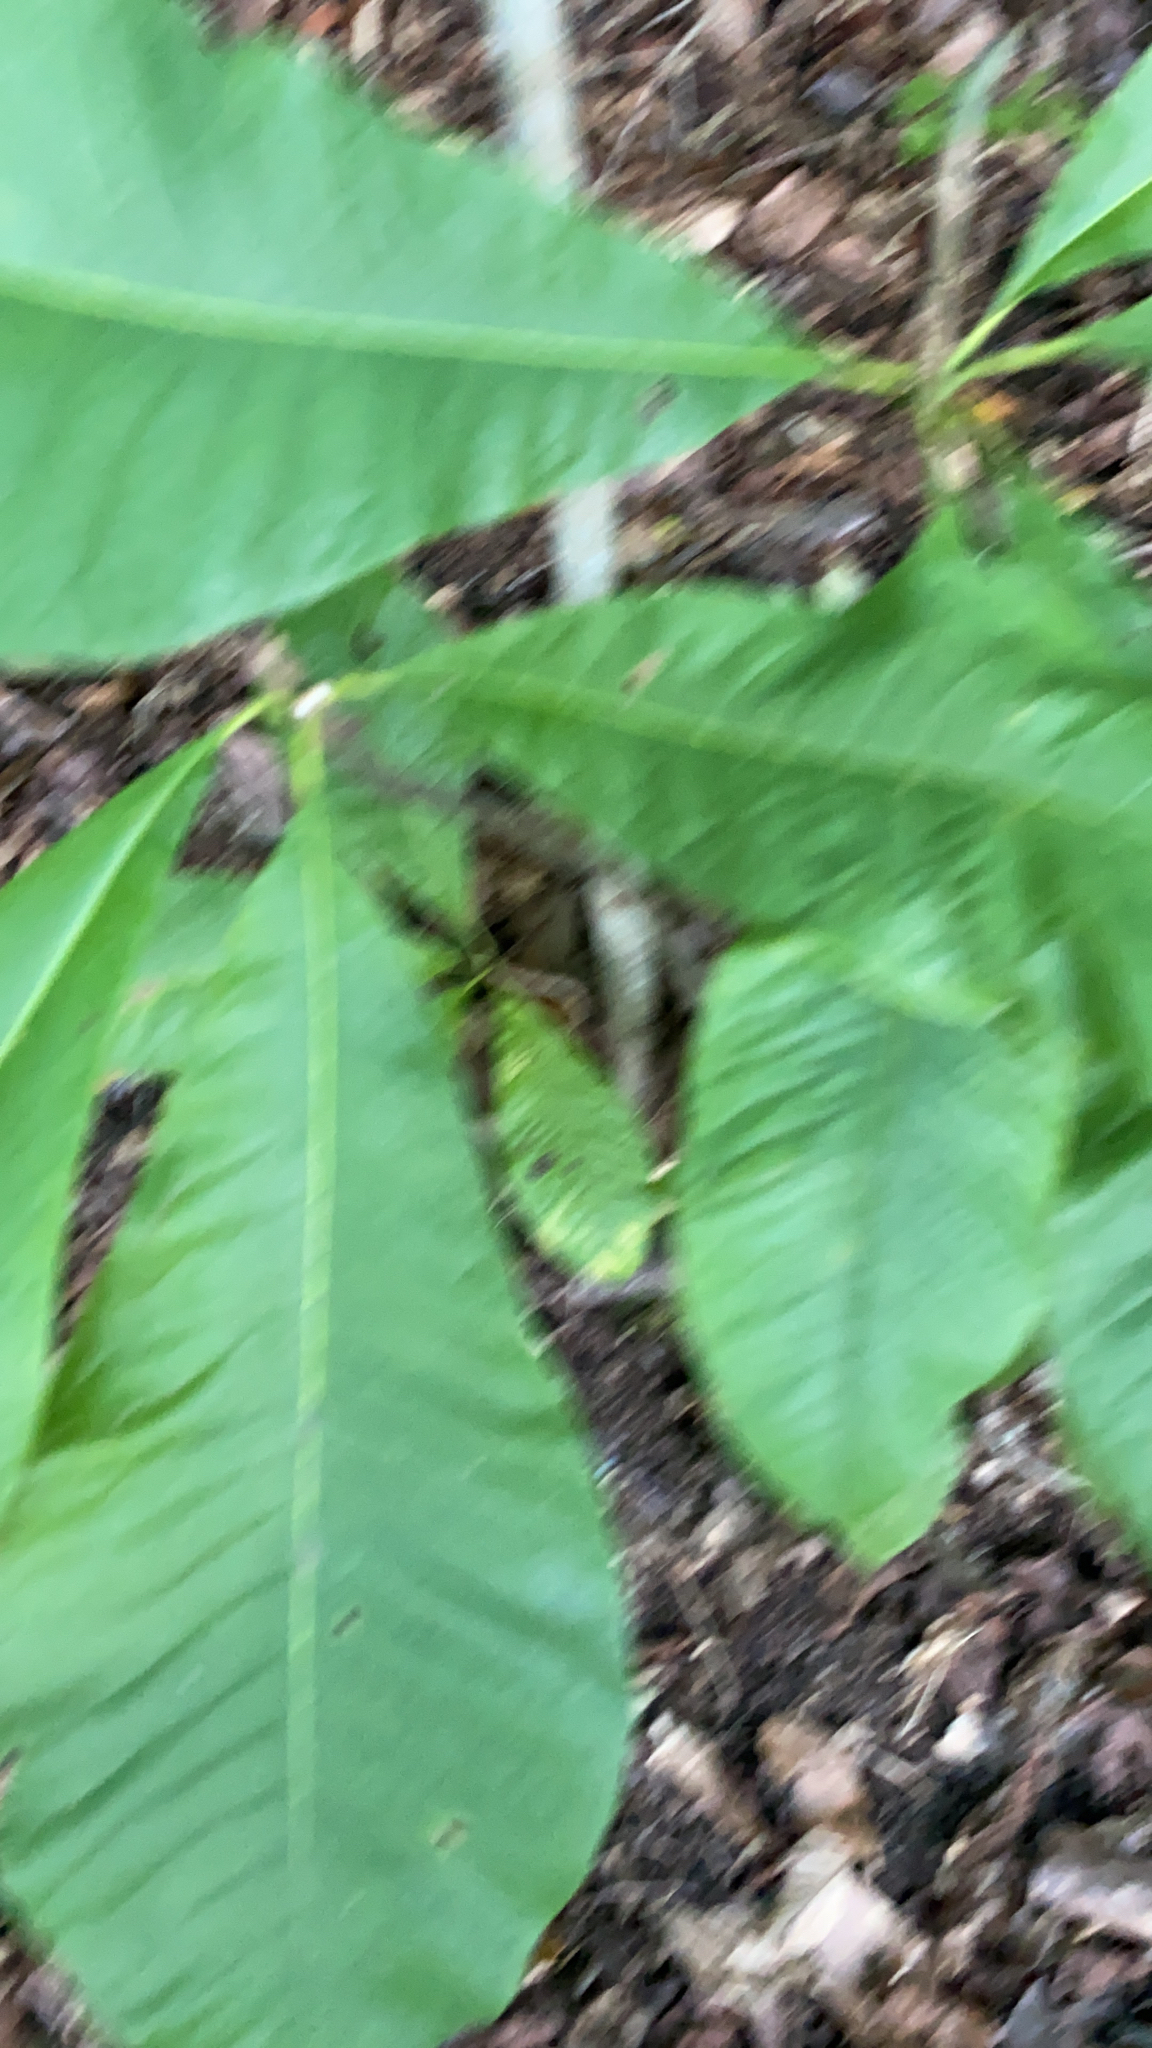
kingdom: Plantae
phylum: Tracheophyta
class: Magnoliopsida
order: Magnoliales
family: Magnoliaceae
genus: Magnolia
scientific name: Magnolia tripetala
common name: Umbrella magnolia
